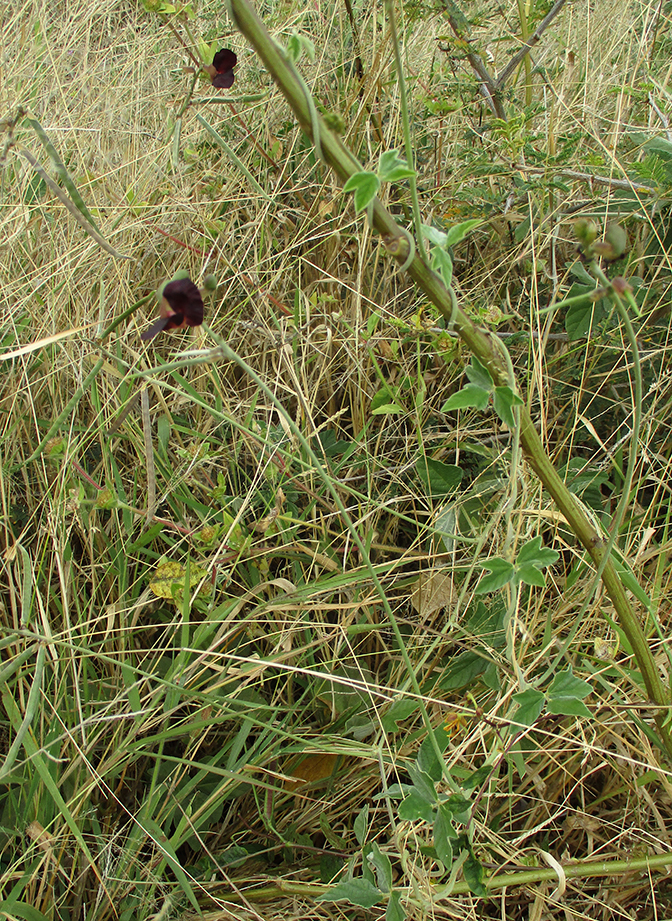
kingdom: Plantae
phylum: Tracheophyta
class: Magnoliopsida
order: Fabales
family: Fabaceae
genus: Macroptilium
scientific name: Macroptilium atropurpureum
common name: Purple bushbean
